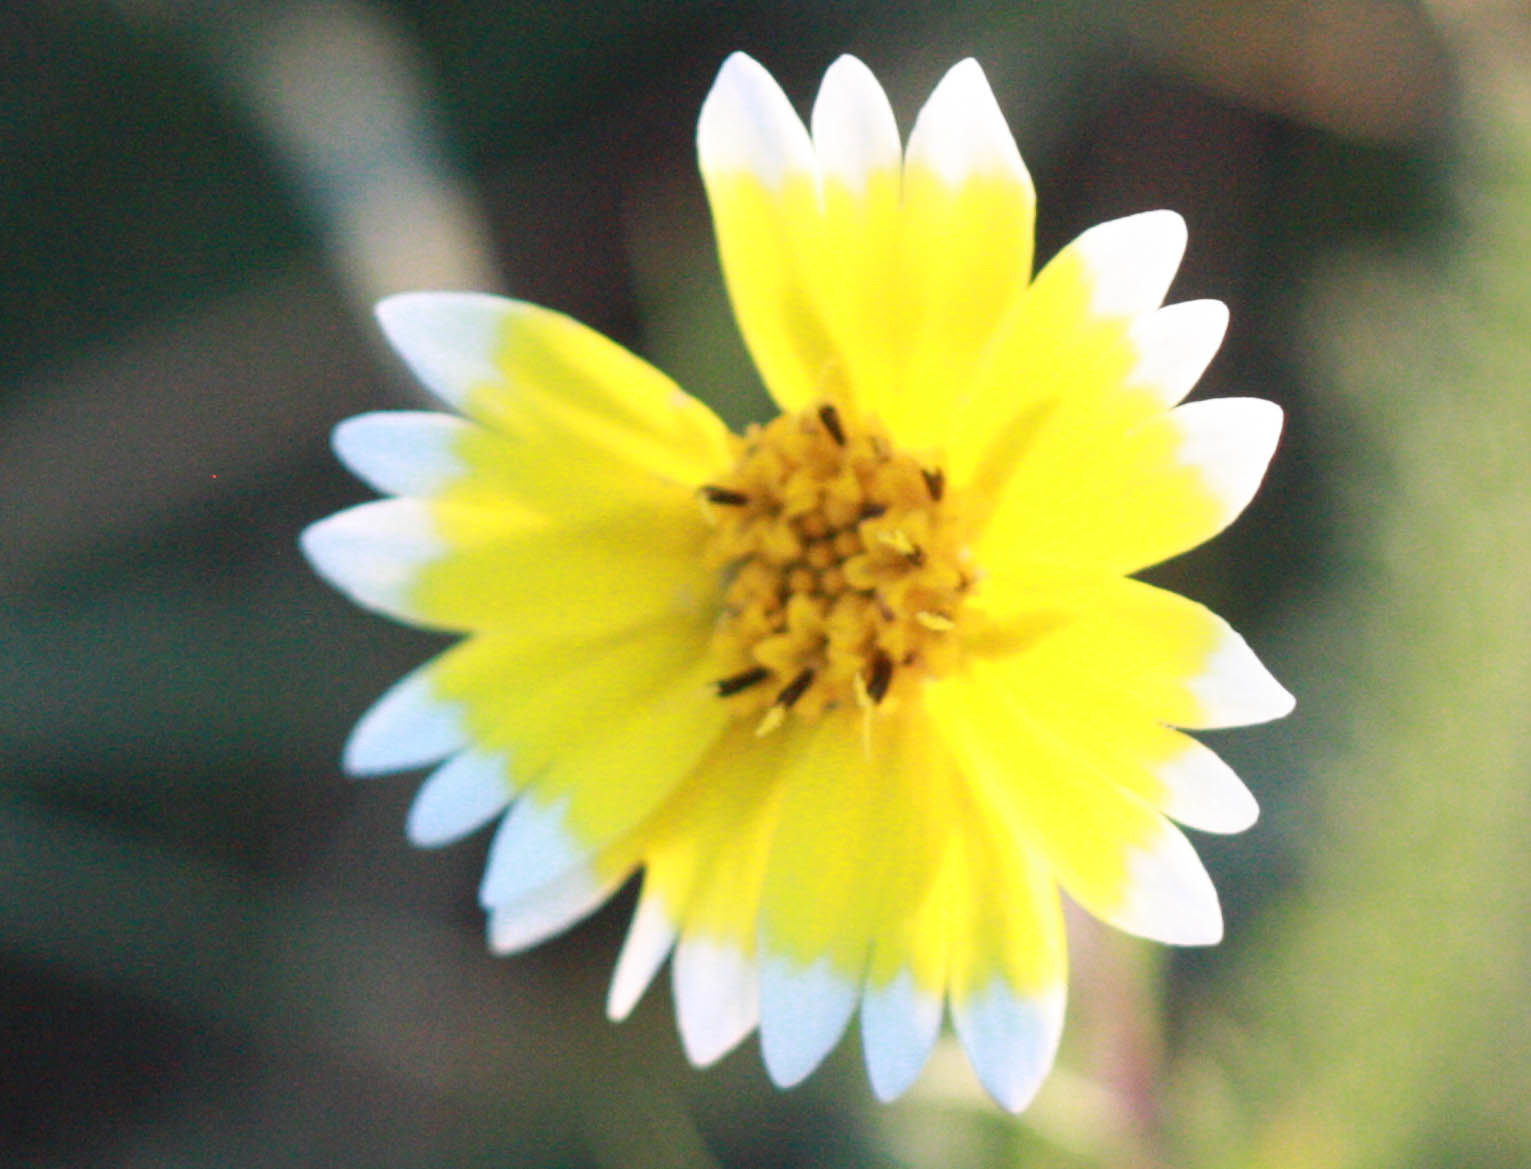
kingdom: Plantae
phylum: Tracheophyta
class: Magnoliopsida
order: Asterales
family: Asteraceae
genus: Layia
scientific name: Layia platyglossa
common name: Tidy-tips
